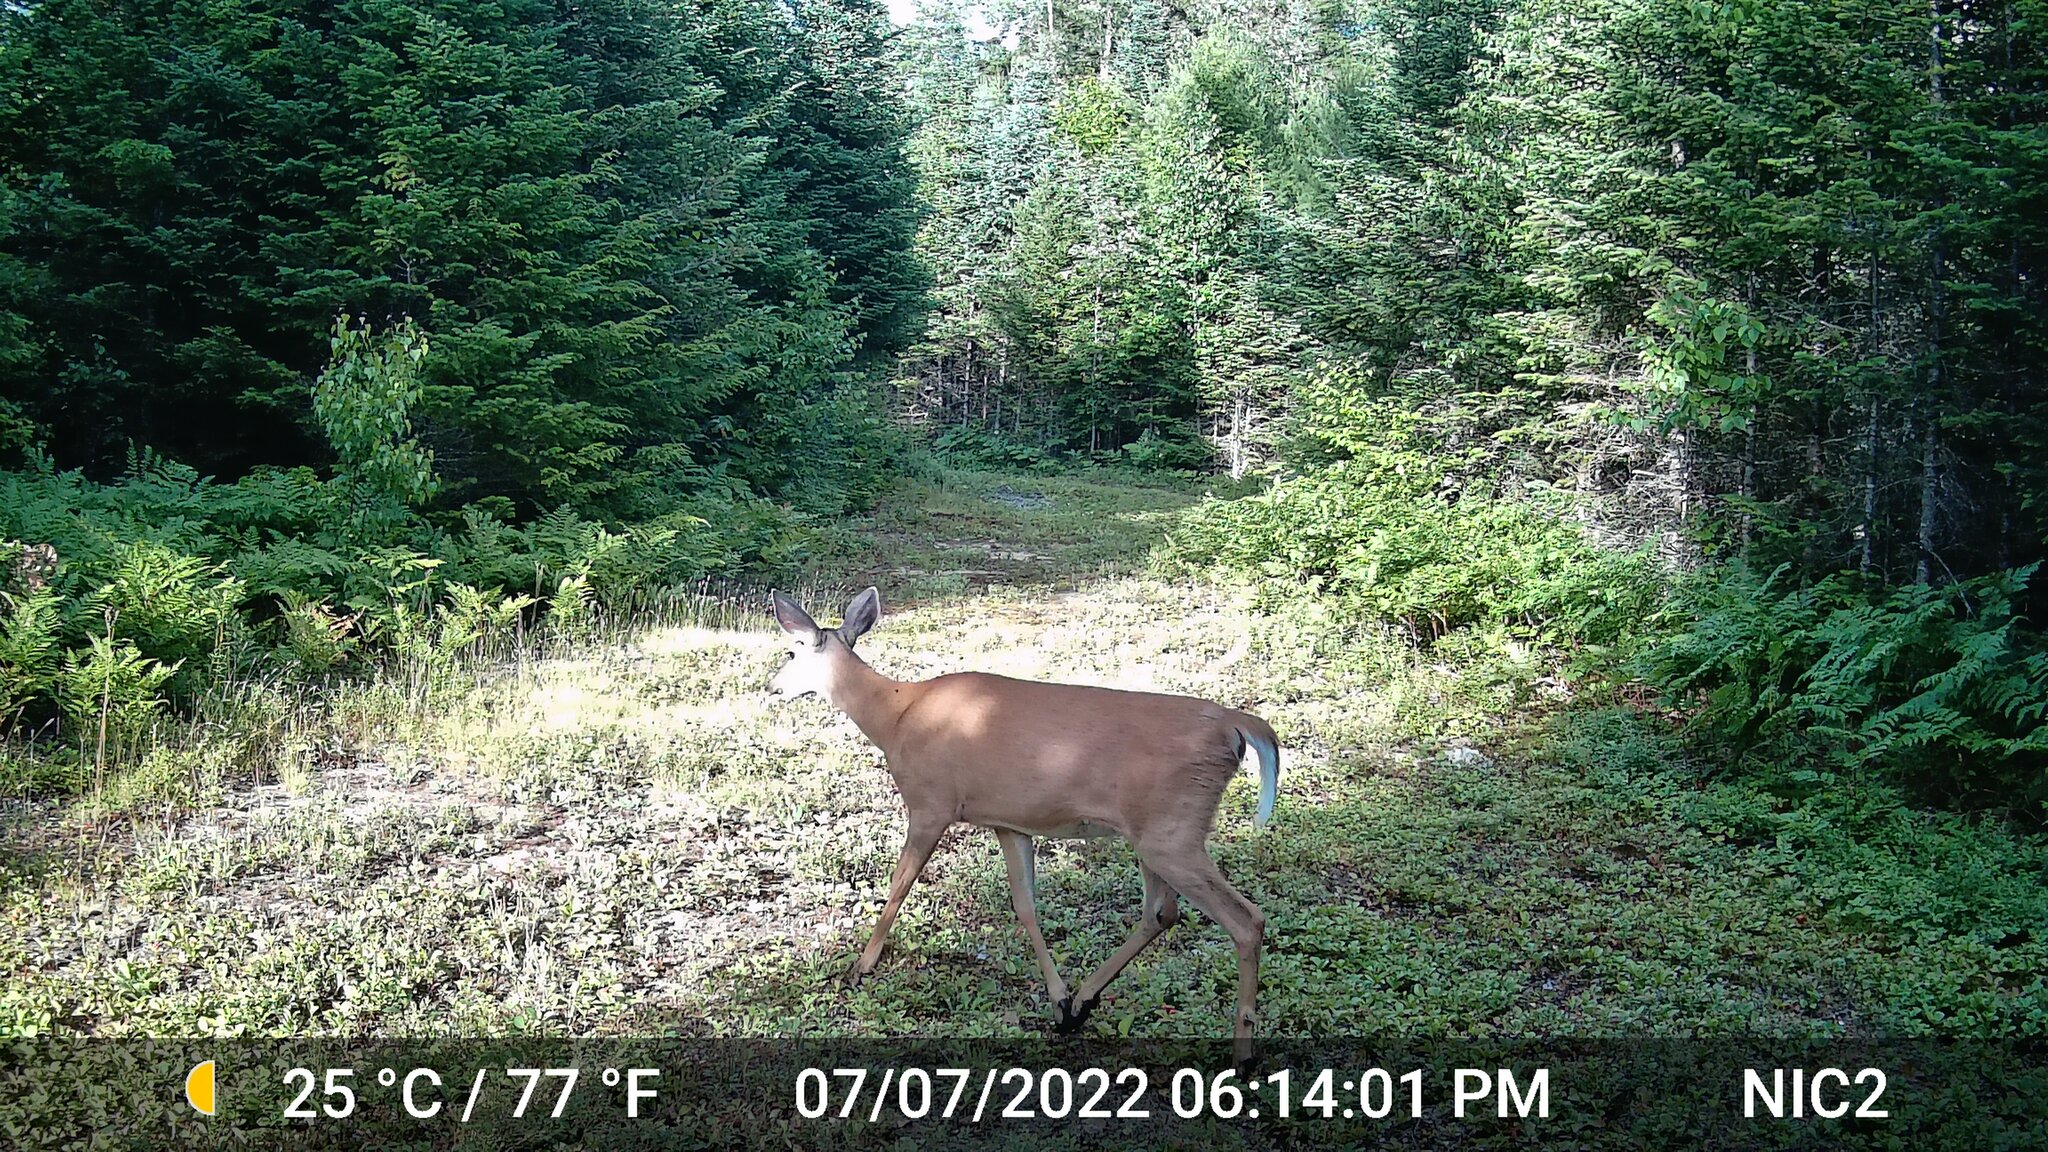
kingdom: Animalia
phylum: Chordata
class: Mammalia
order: Artiodactyla
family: Cervidae
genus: Odocoileus
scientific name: Odocoileus virginianus
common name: White-tailed deer
